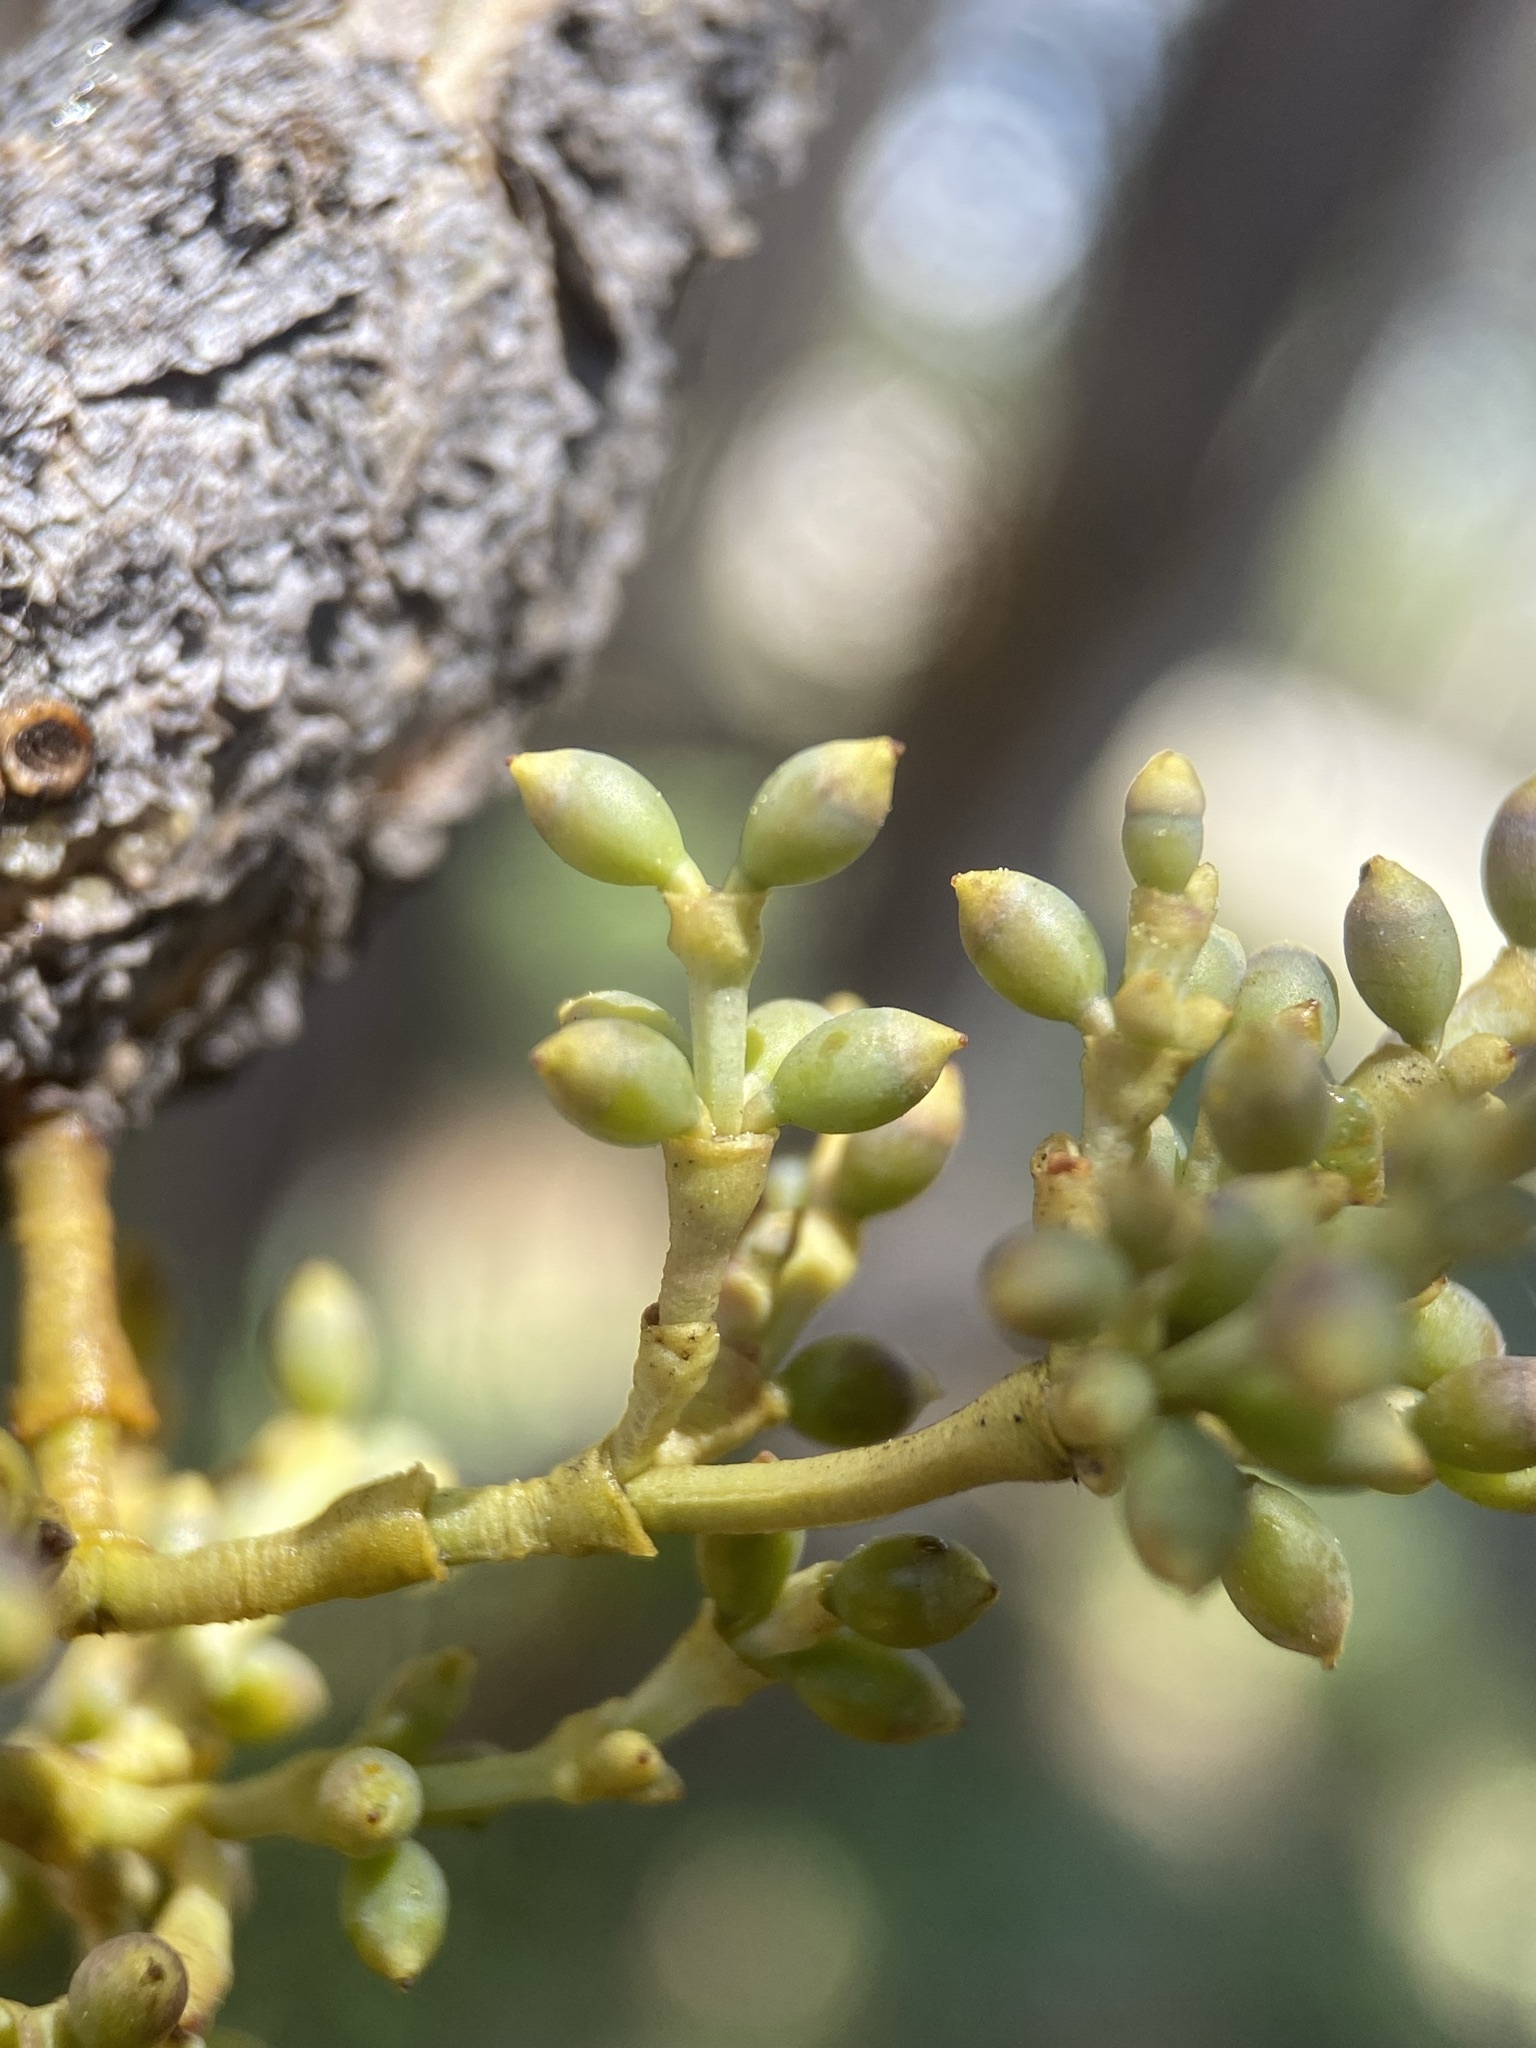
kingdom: Plantae
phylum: Tracheophyta
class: Magnoliopsida
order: Santalales
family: Viscaceae
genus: Arceuthobium
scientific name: Arceuthobium americanum
